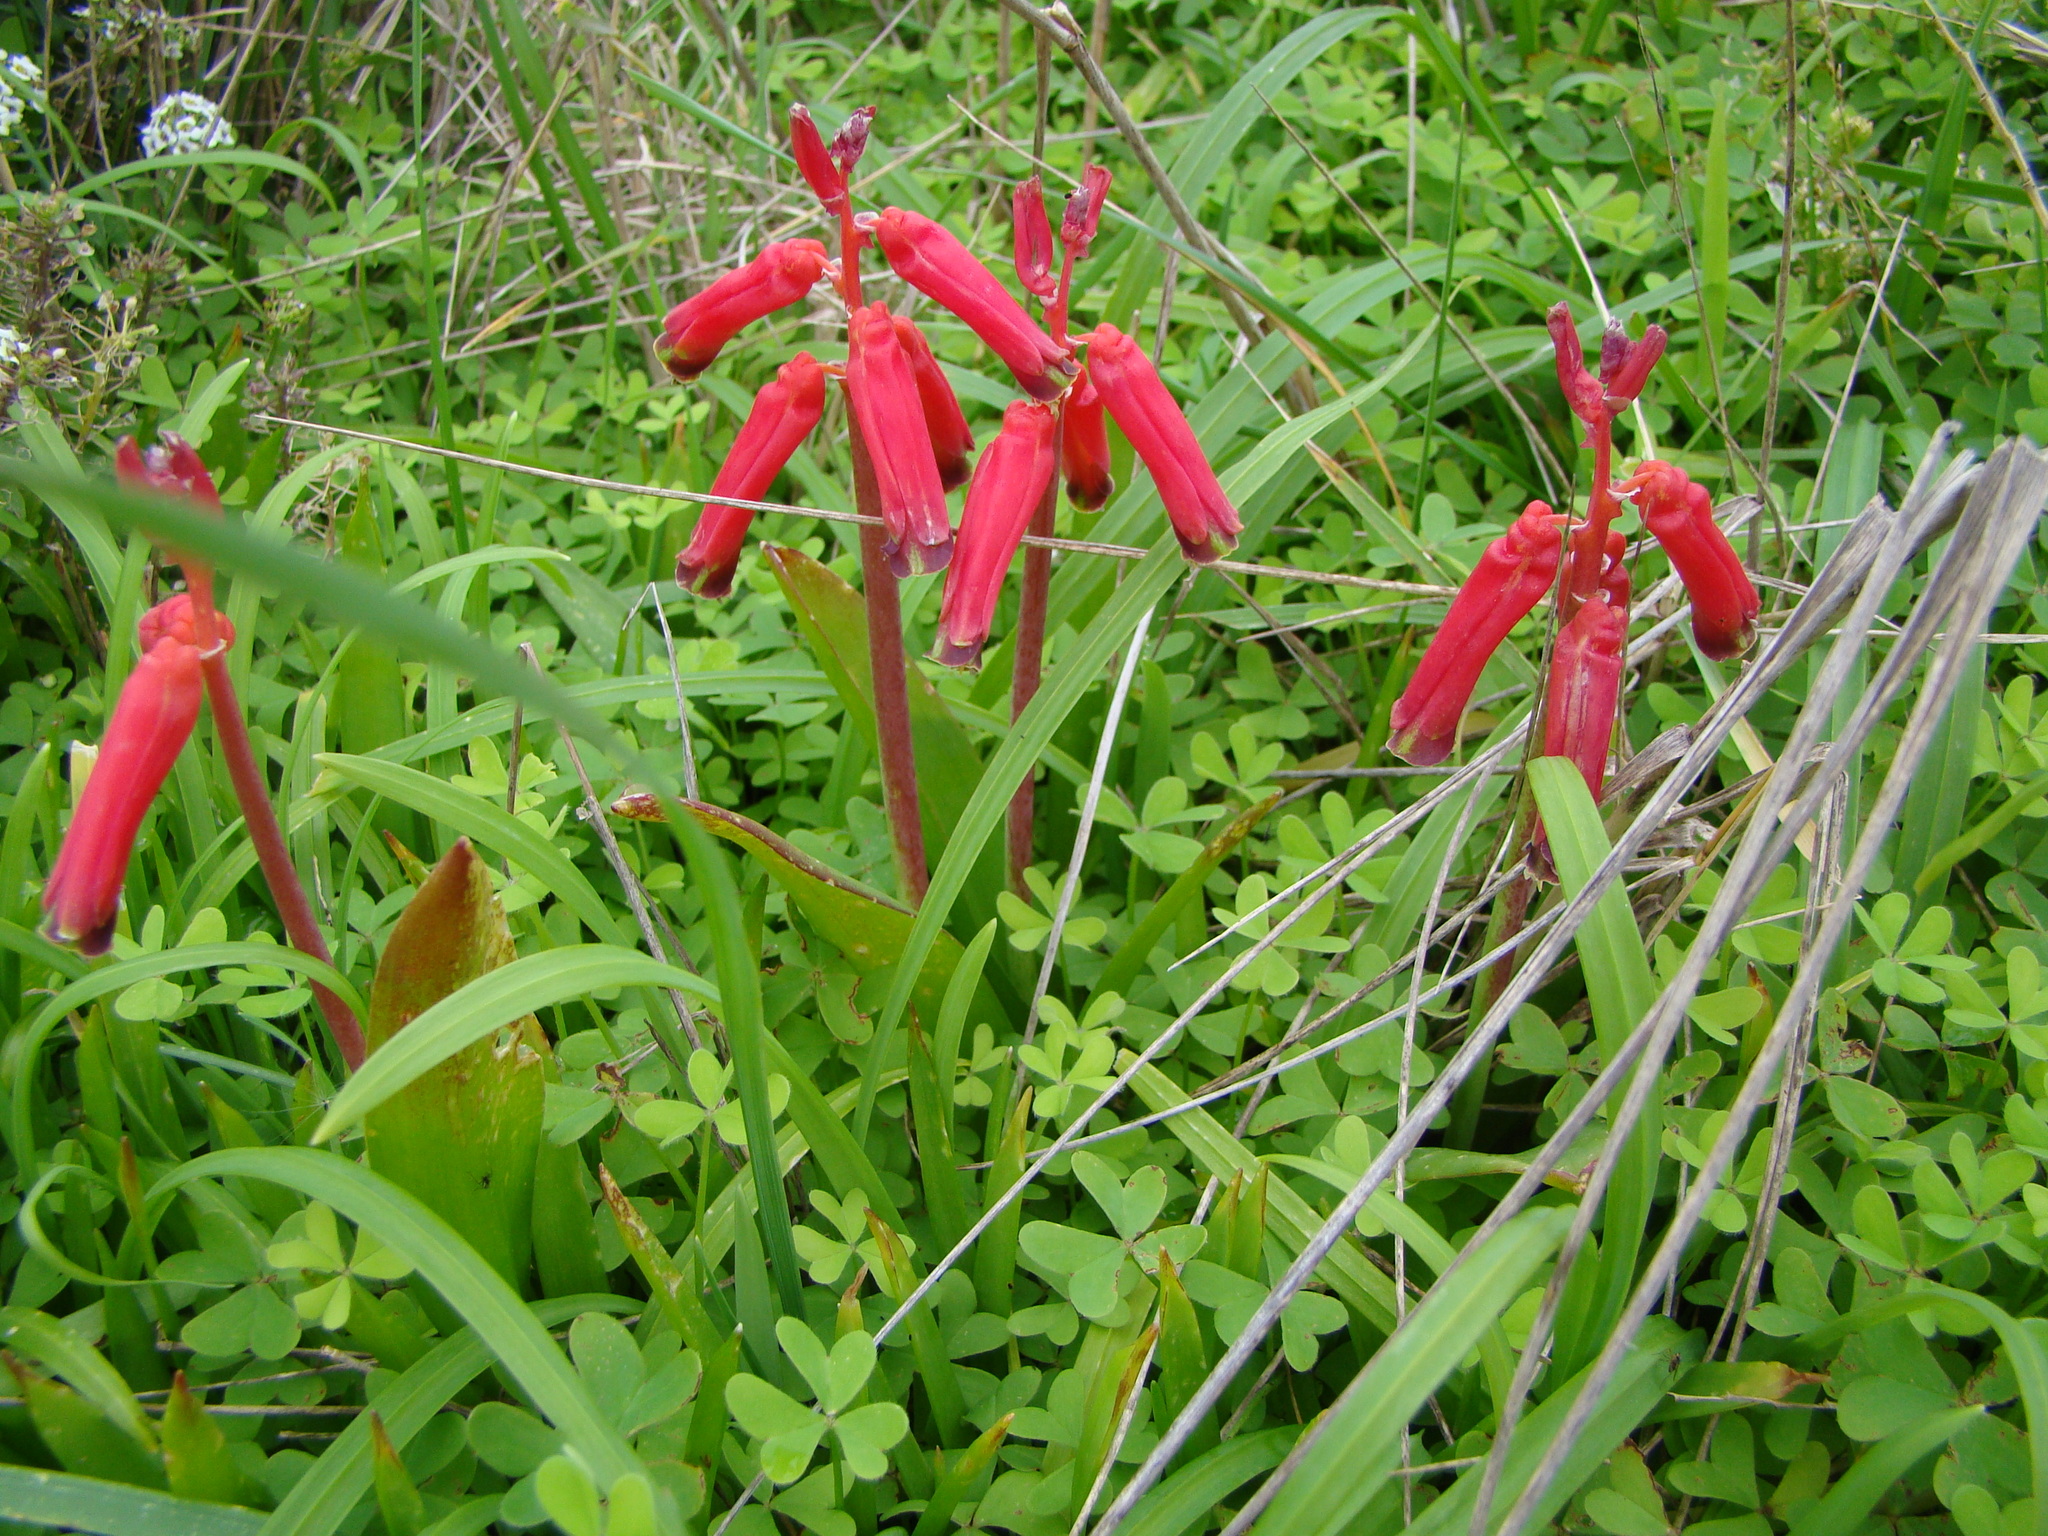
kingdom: Plantae
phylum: Tracheophyta
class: Liliopsida
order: Asparagales
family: Asparagaceae
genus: Lachenalia
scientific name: Lachenalia bulbifera
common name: Red lachenalia
